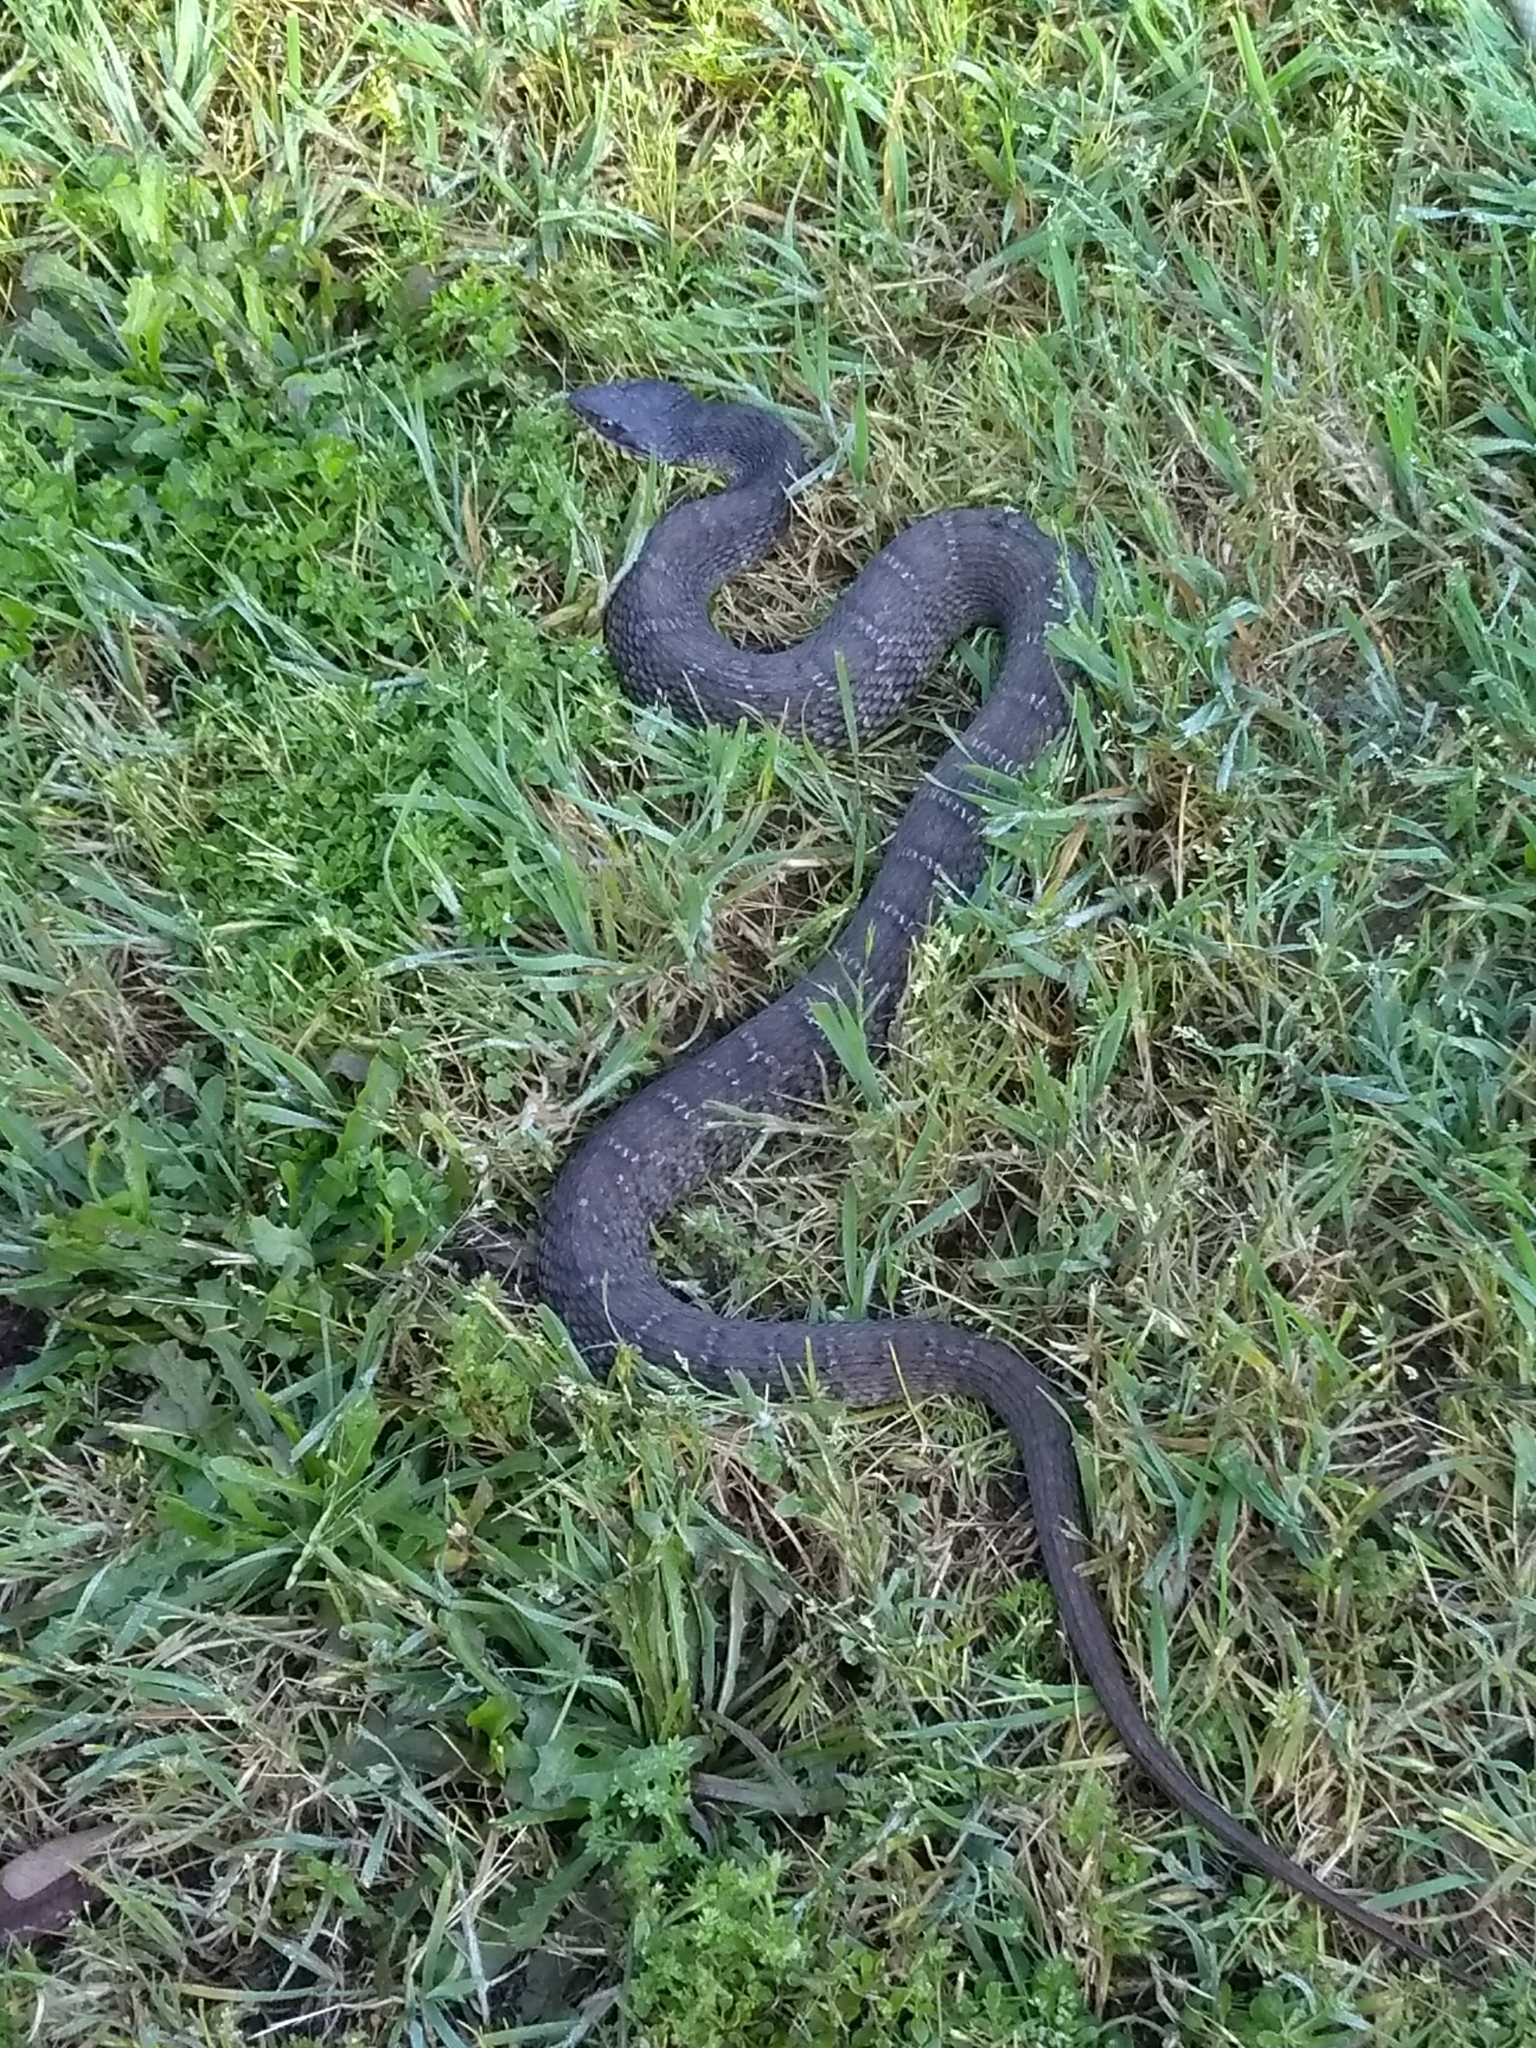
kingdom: Animalia
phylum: Chordata
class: Squamata
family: Colubridae
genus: Nerodia
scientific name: Nerodia erythrogaster
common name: Plainbelly water snake
